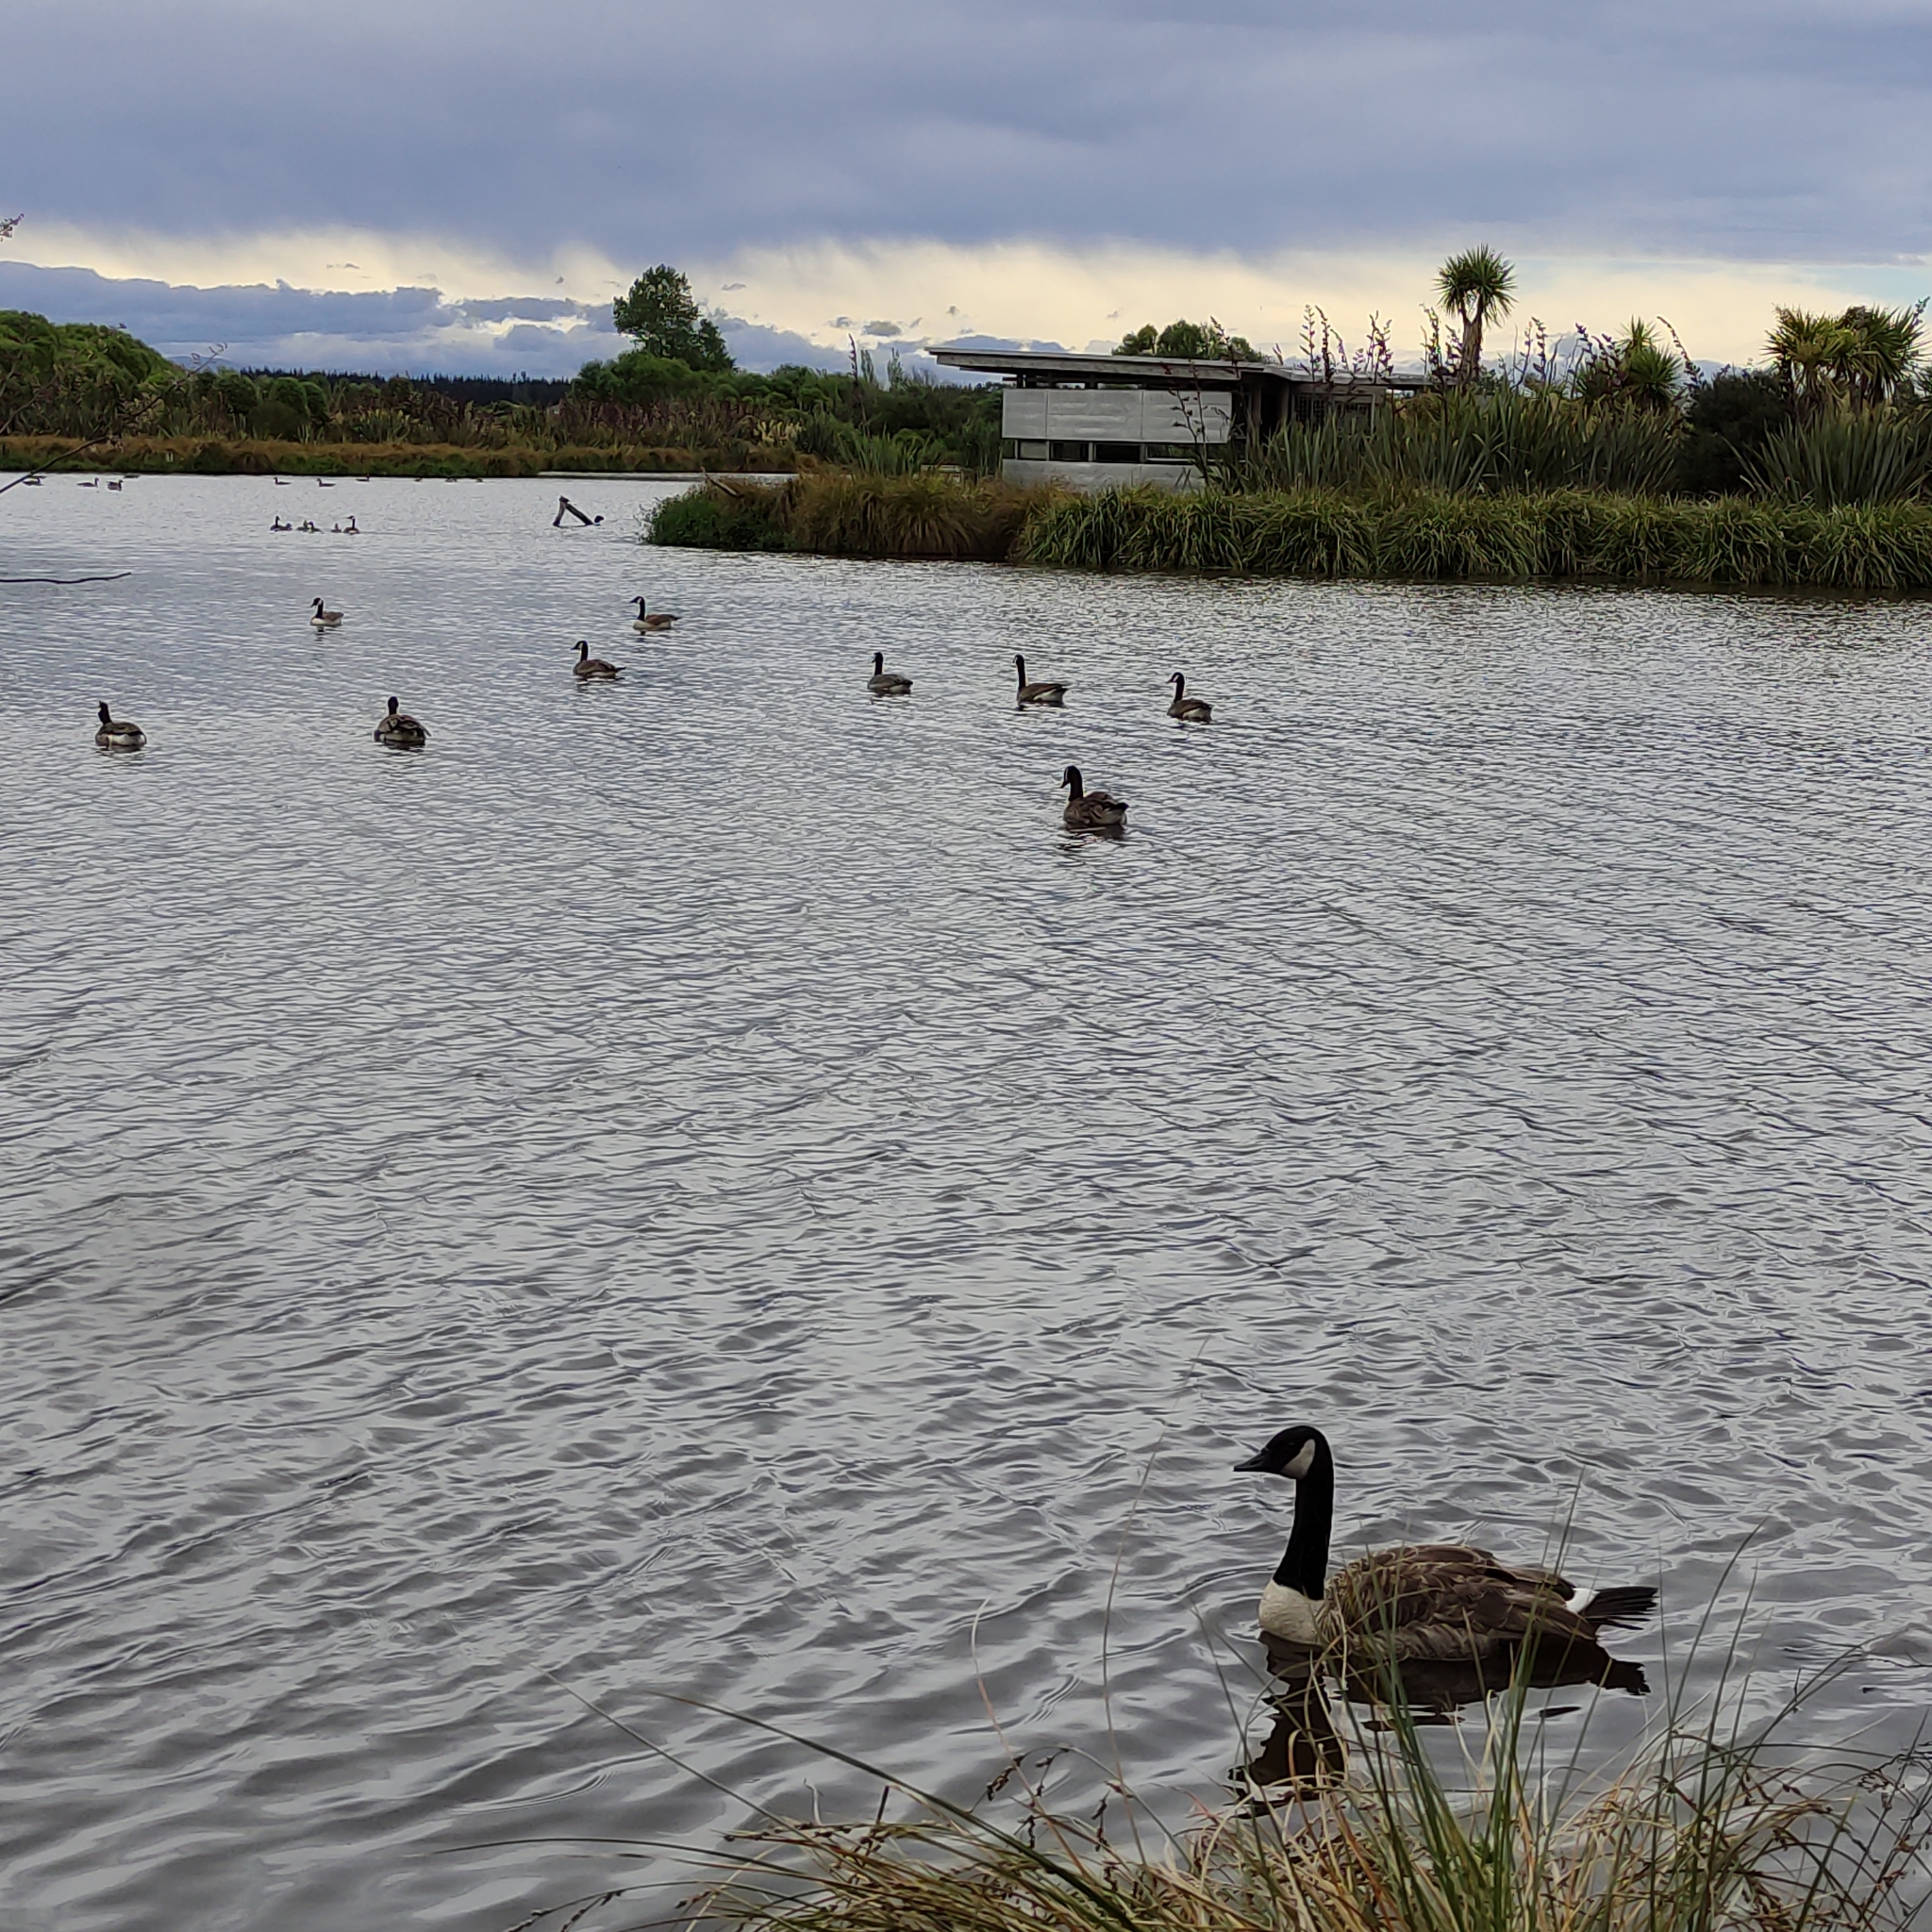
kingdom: Animalia
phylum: Chordata
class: Aves
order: Anseriformes
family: Anatidae
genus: Branta
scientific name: Branta canadensis
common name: Canada goose
